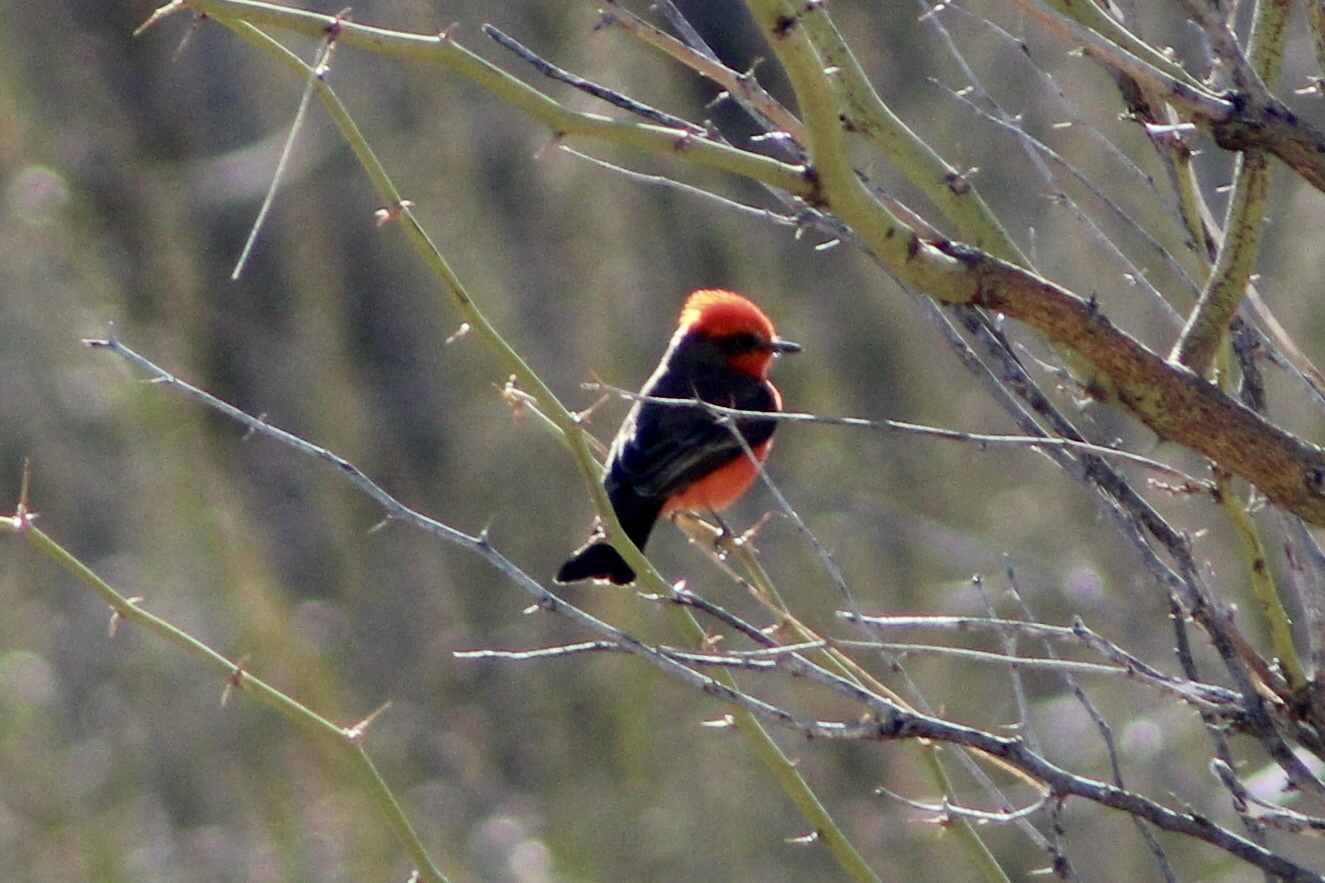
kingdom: Animalia
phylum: Chordata
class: Aves
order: Passeriformes
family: Tyrannidae
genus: Pyrocephalus
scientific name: Pyrocephalus rubinus
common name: Vermilion flycatcher
